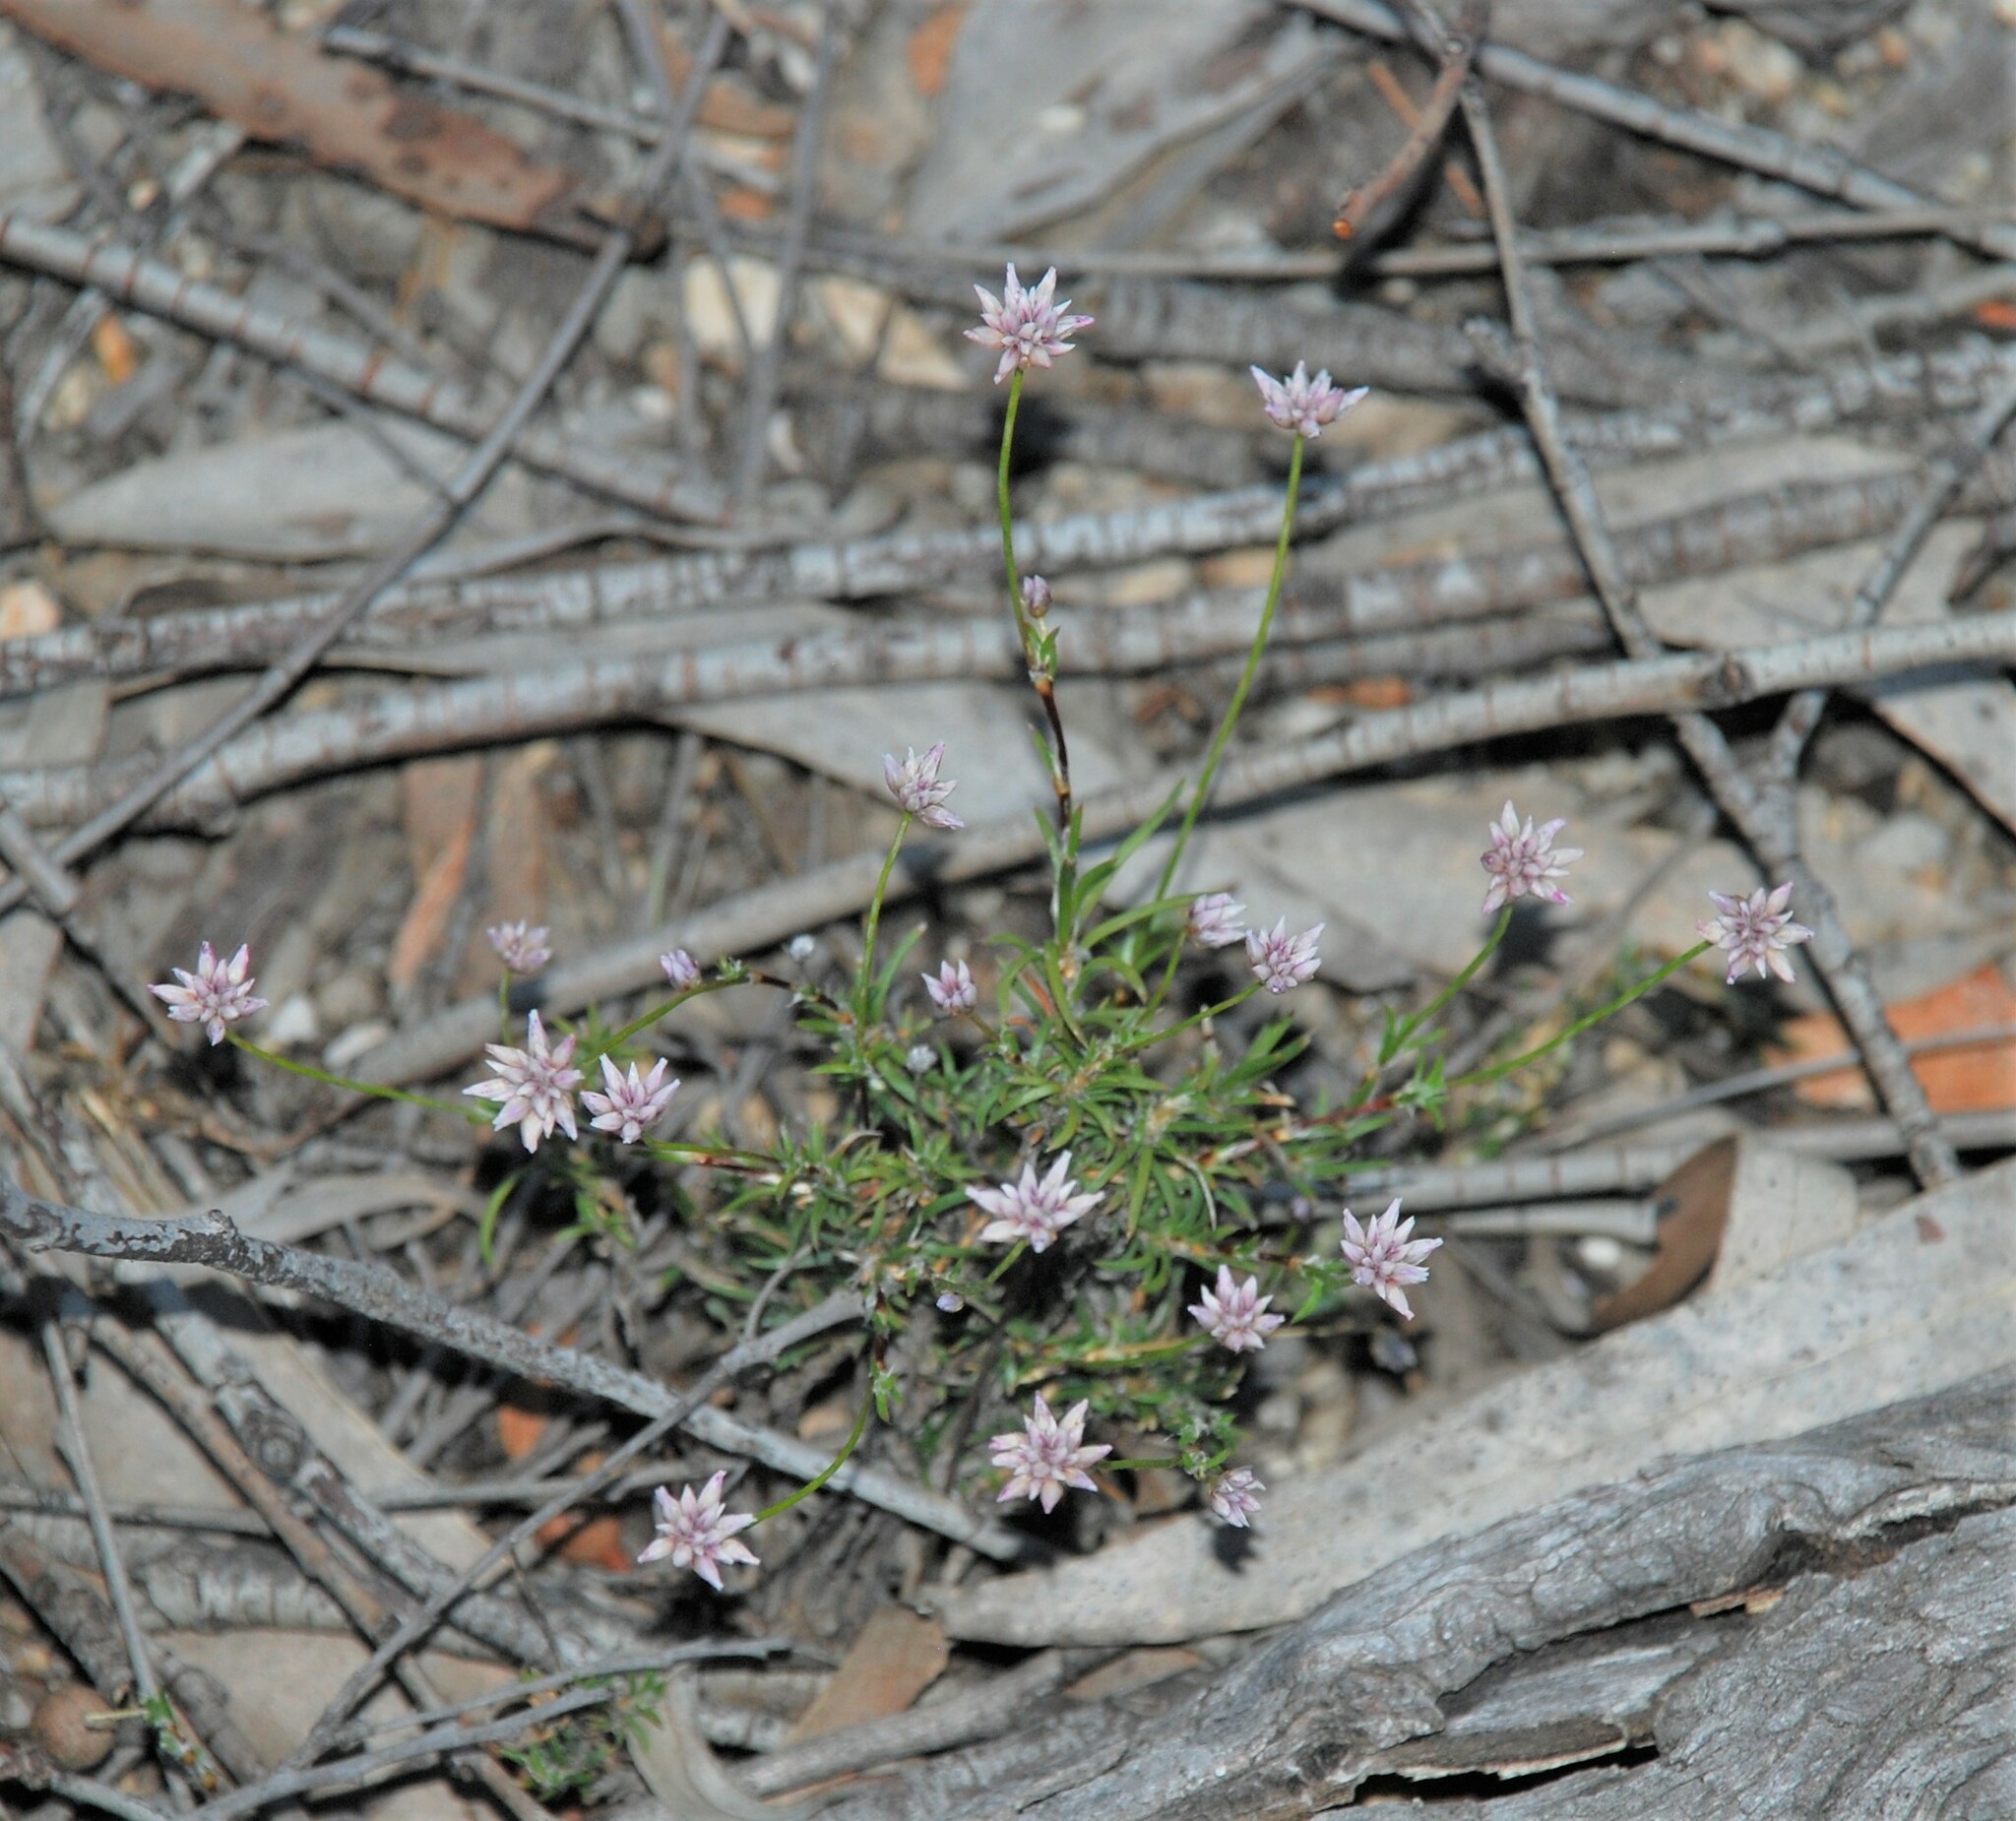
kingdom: Plantae
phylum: Tracheophyta
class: Liliopsida
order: Asparagales
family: Asparagaceae
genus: Laxmannia
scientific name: Laxmannia gracilis
